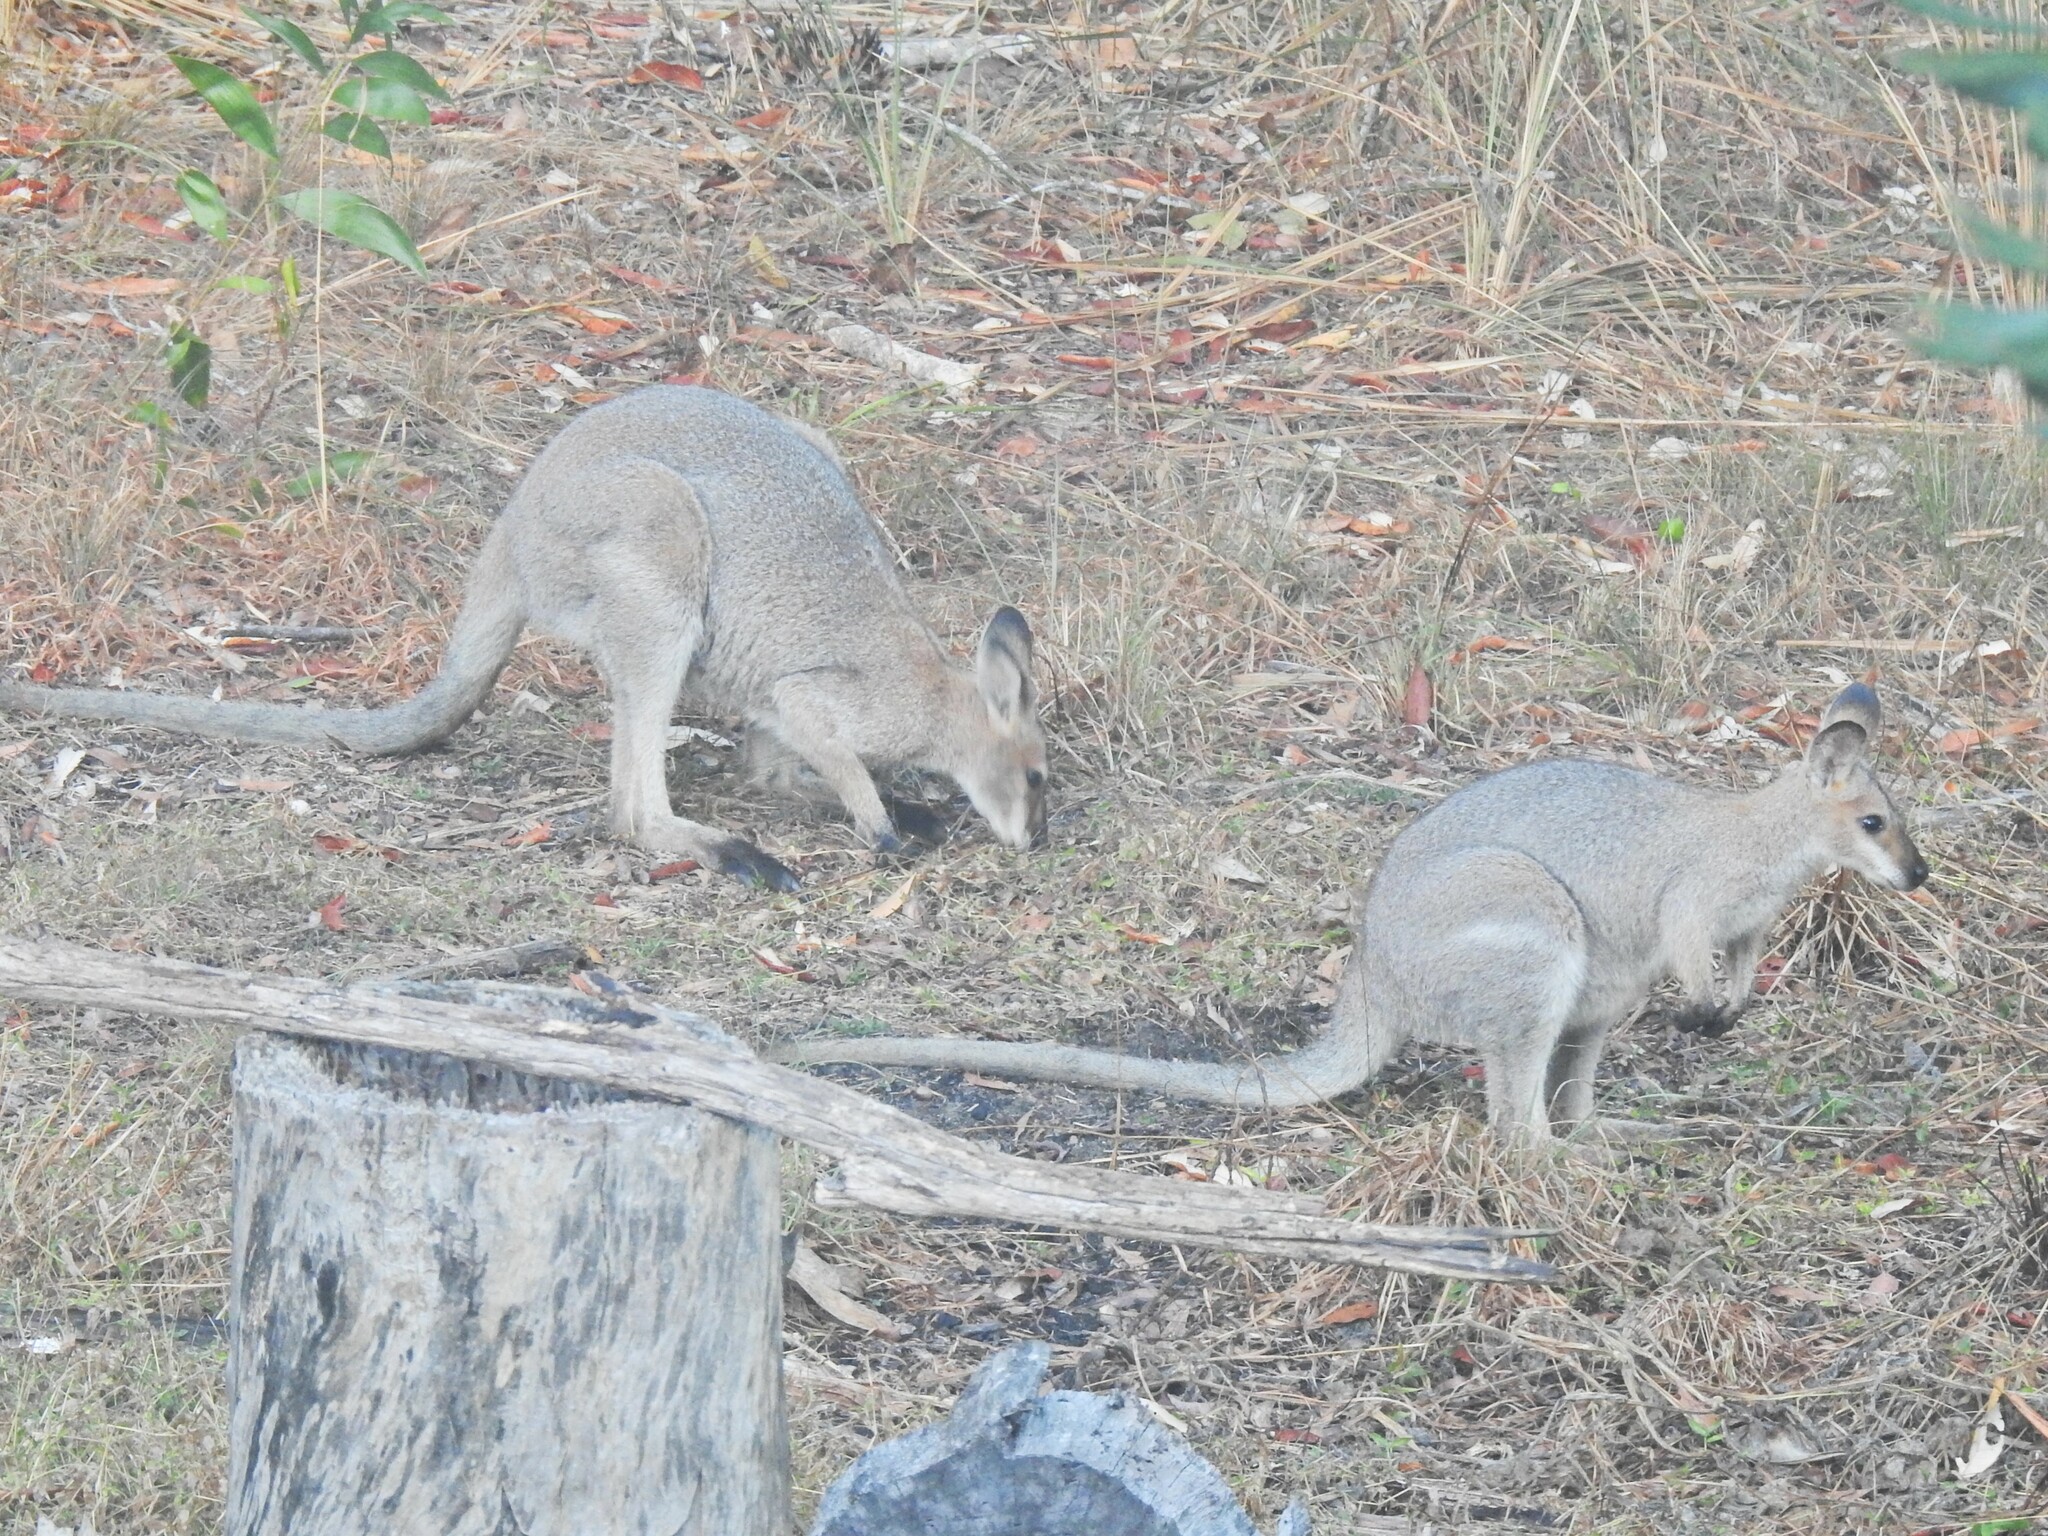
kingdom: Animalia
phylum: Chordata
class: Mammalia
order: Diprotodontia
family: Macropodidae
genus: Notamacropus
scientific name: Notamacropus rufogriseus
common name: Red-necked wallaby
